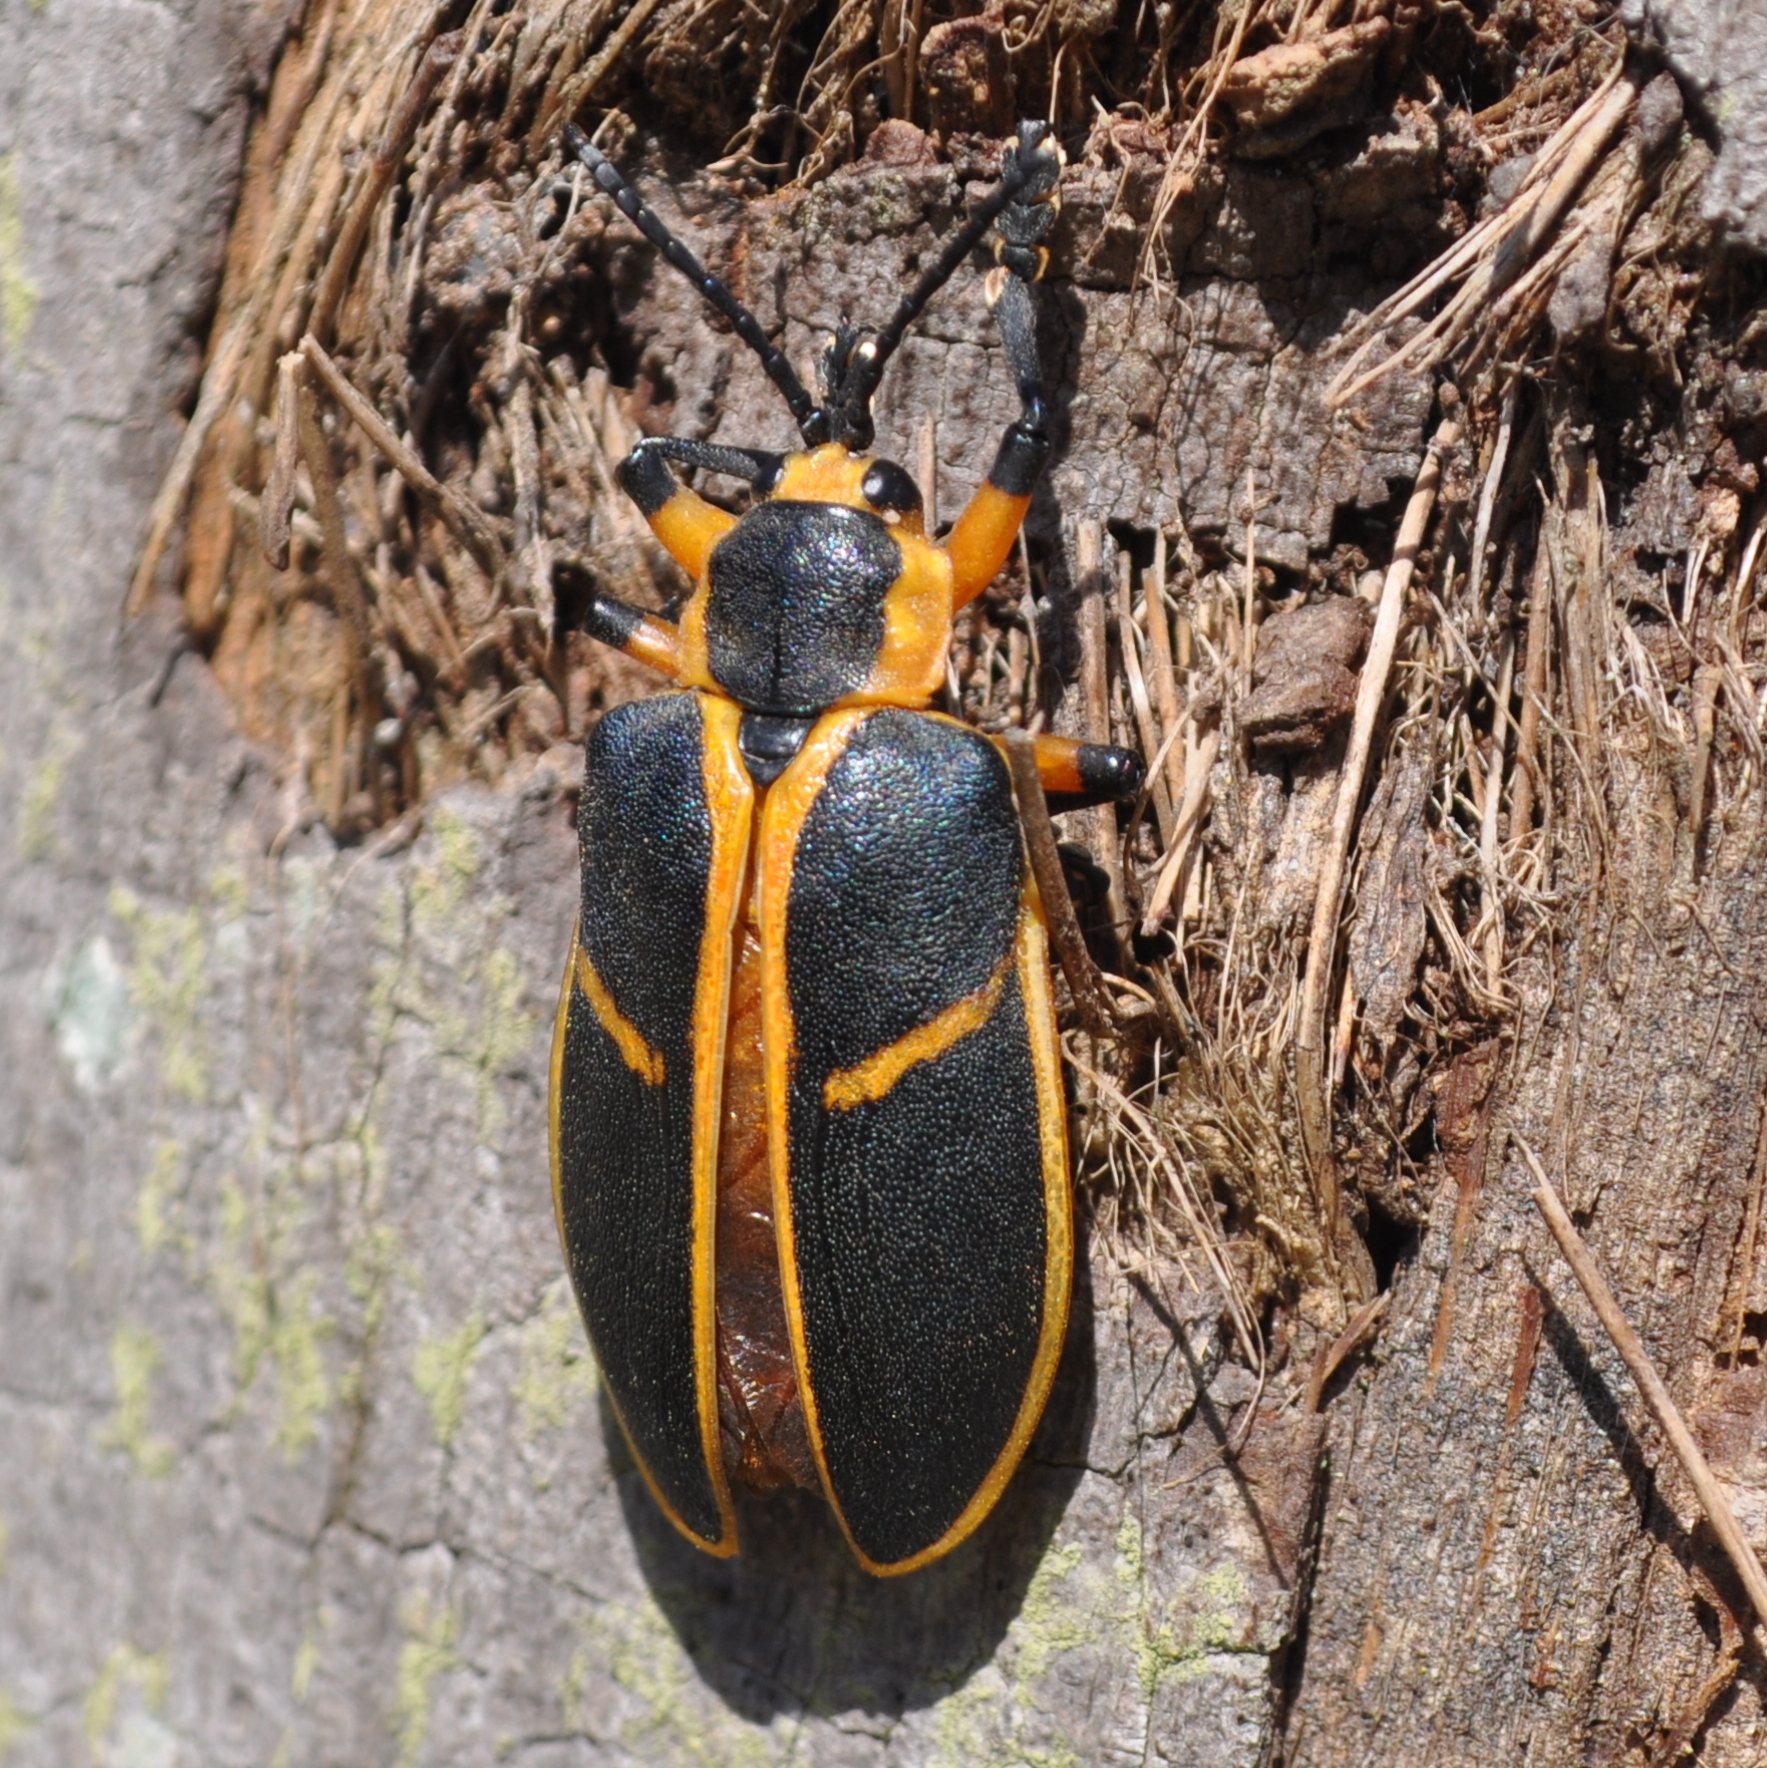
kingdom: Animalia
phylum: Arthropoda
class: Insecta
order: Coleoptera
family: Chrysomelidae
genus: Mecistomela
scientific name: Mecistomela marginata
